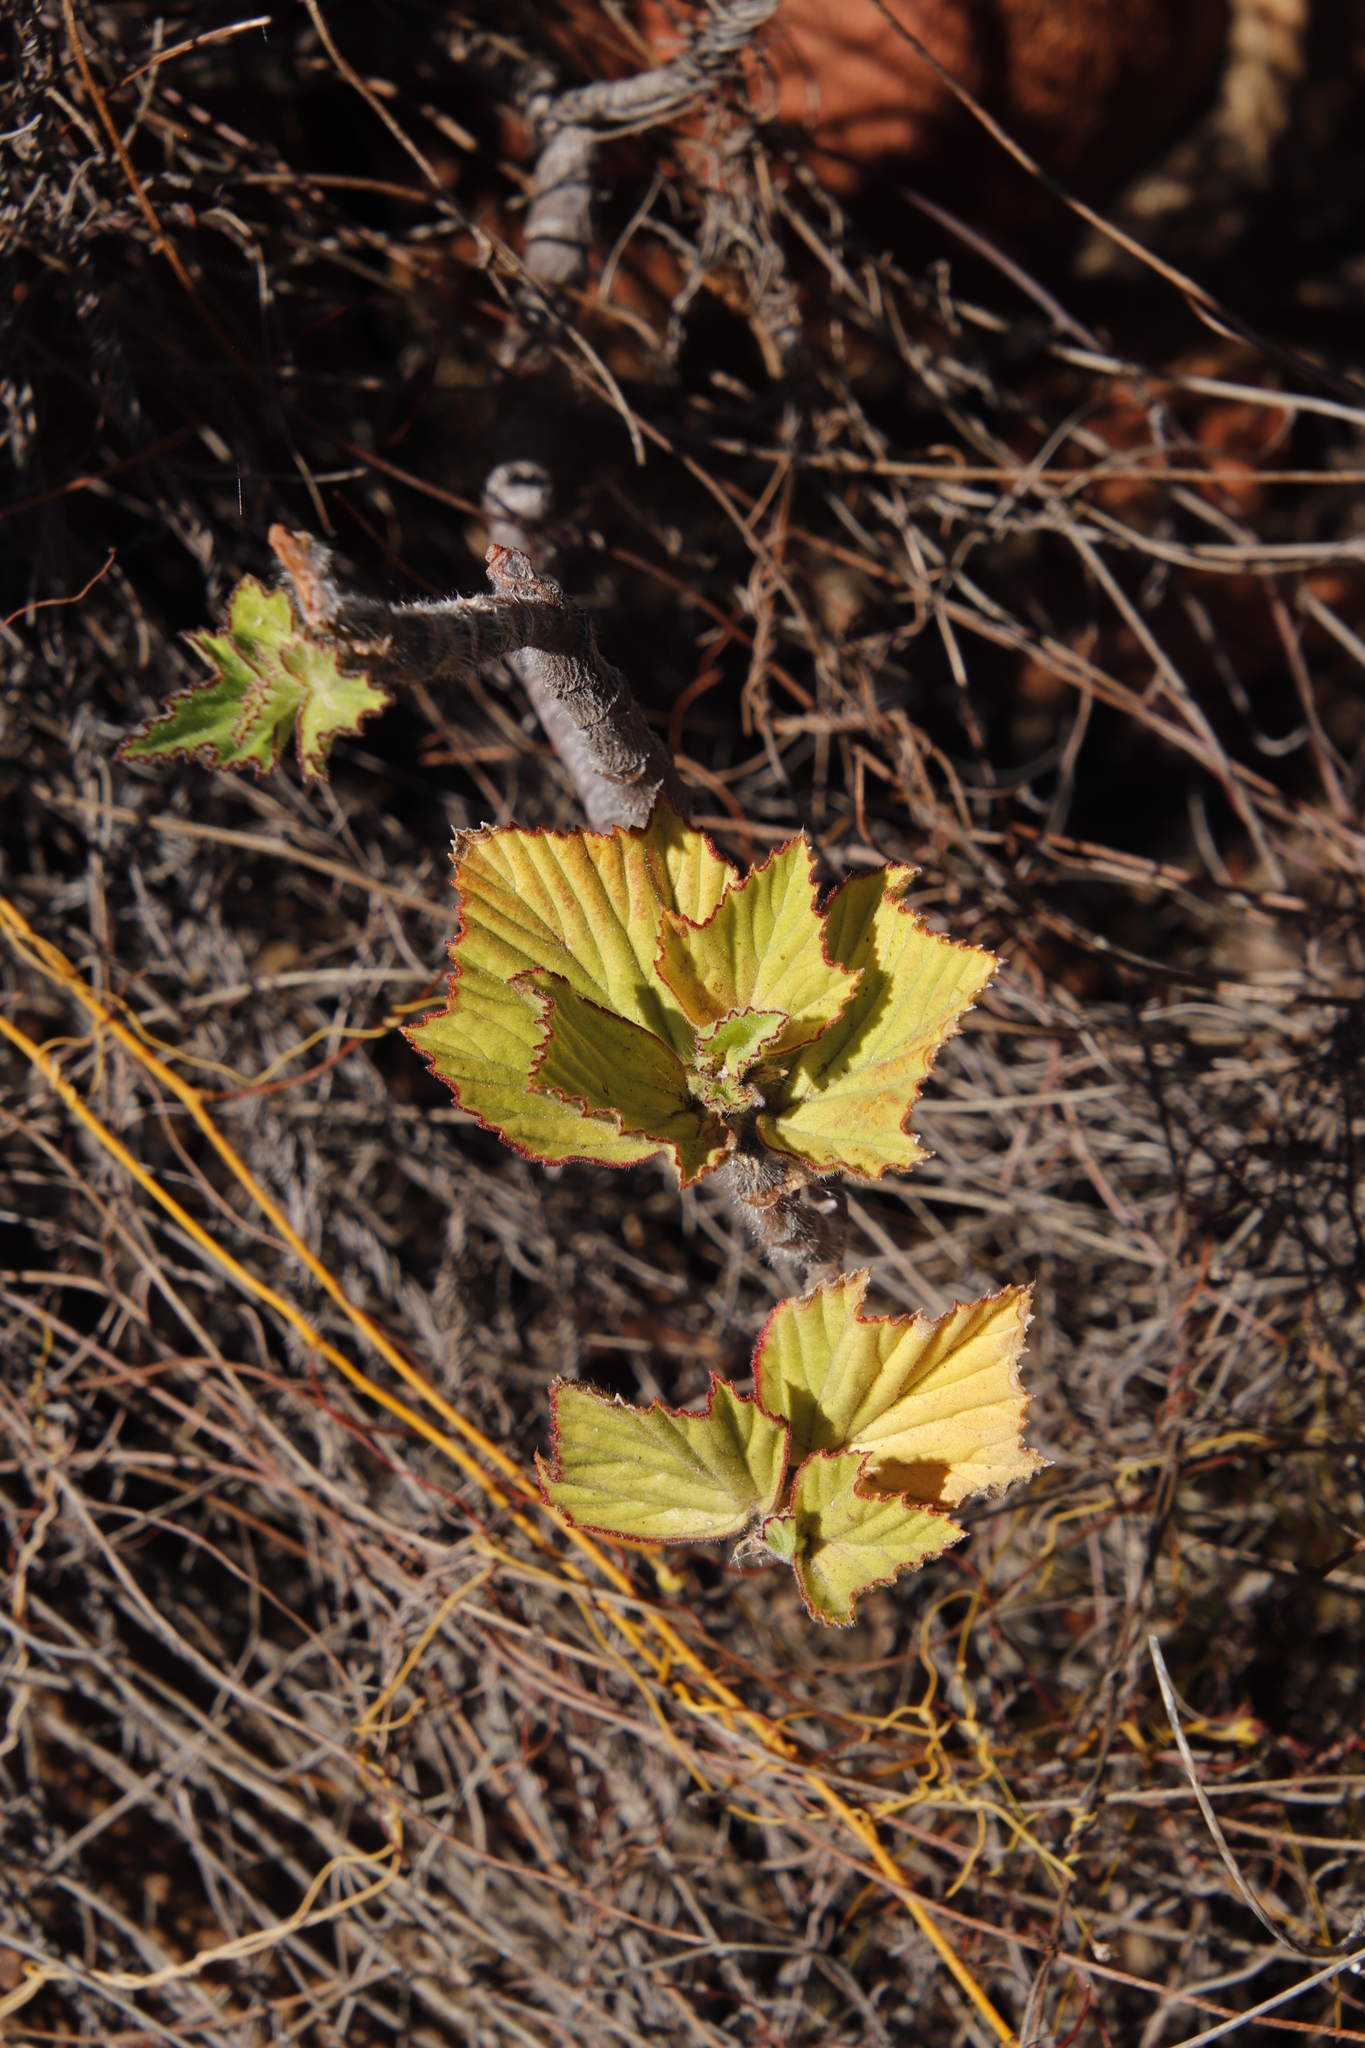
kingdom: Plantae
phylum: Tracheophyta
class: Magnoliopsida
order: Geraniales
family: Geraniaceae
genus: Pelargonium
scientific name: Pelargonium cucullatum
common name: Tree pelargonium
